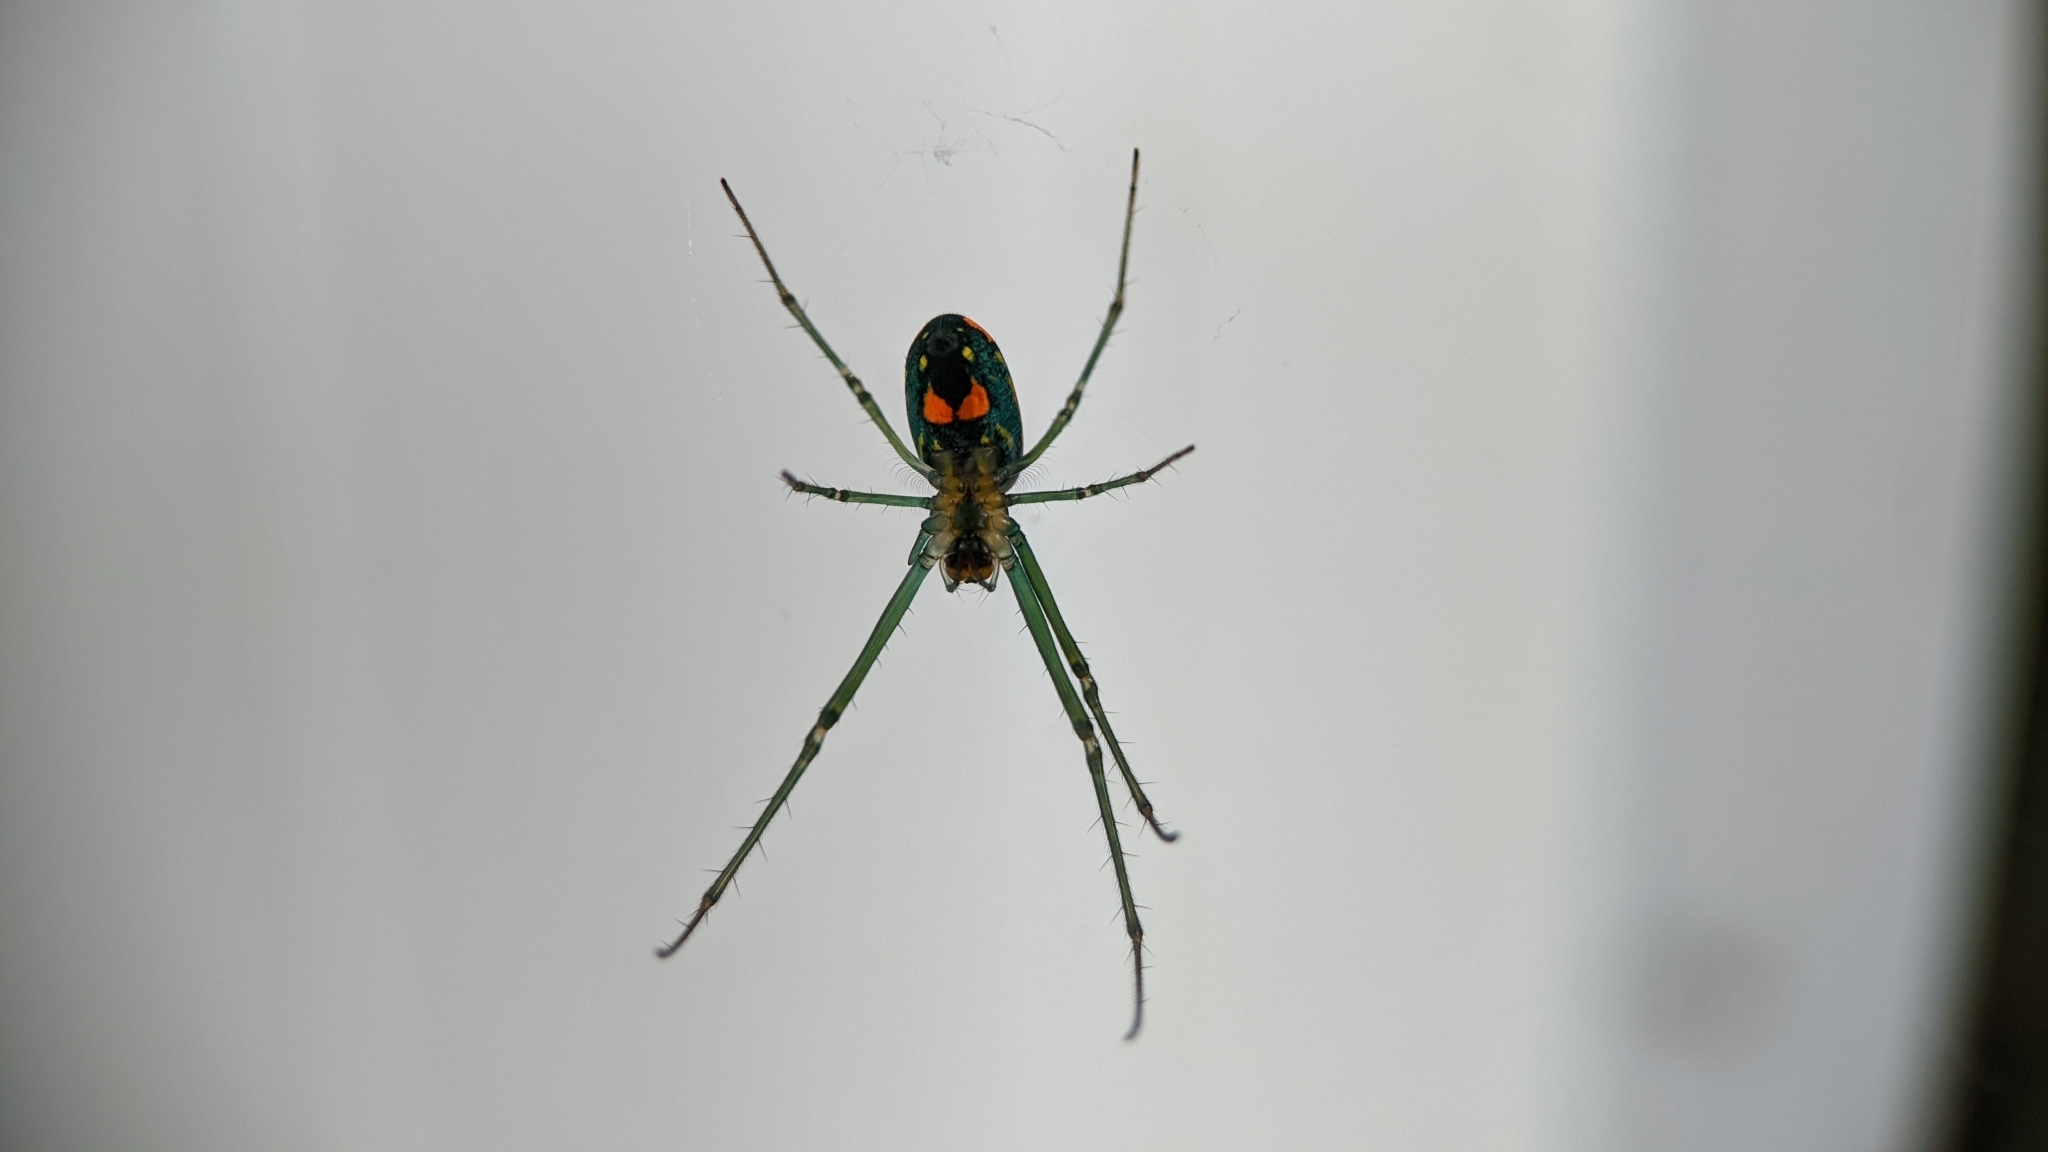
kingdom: Animalia
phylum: Arthropoda
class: Arachnida
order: Araneae
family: Tetragnathidae
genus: Leucauge
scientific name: Leucauge argyrobapta
